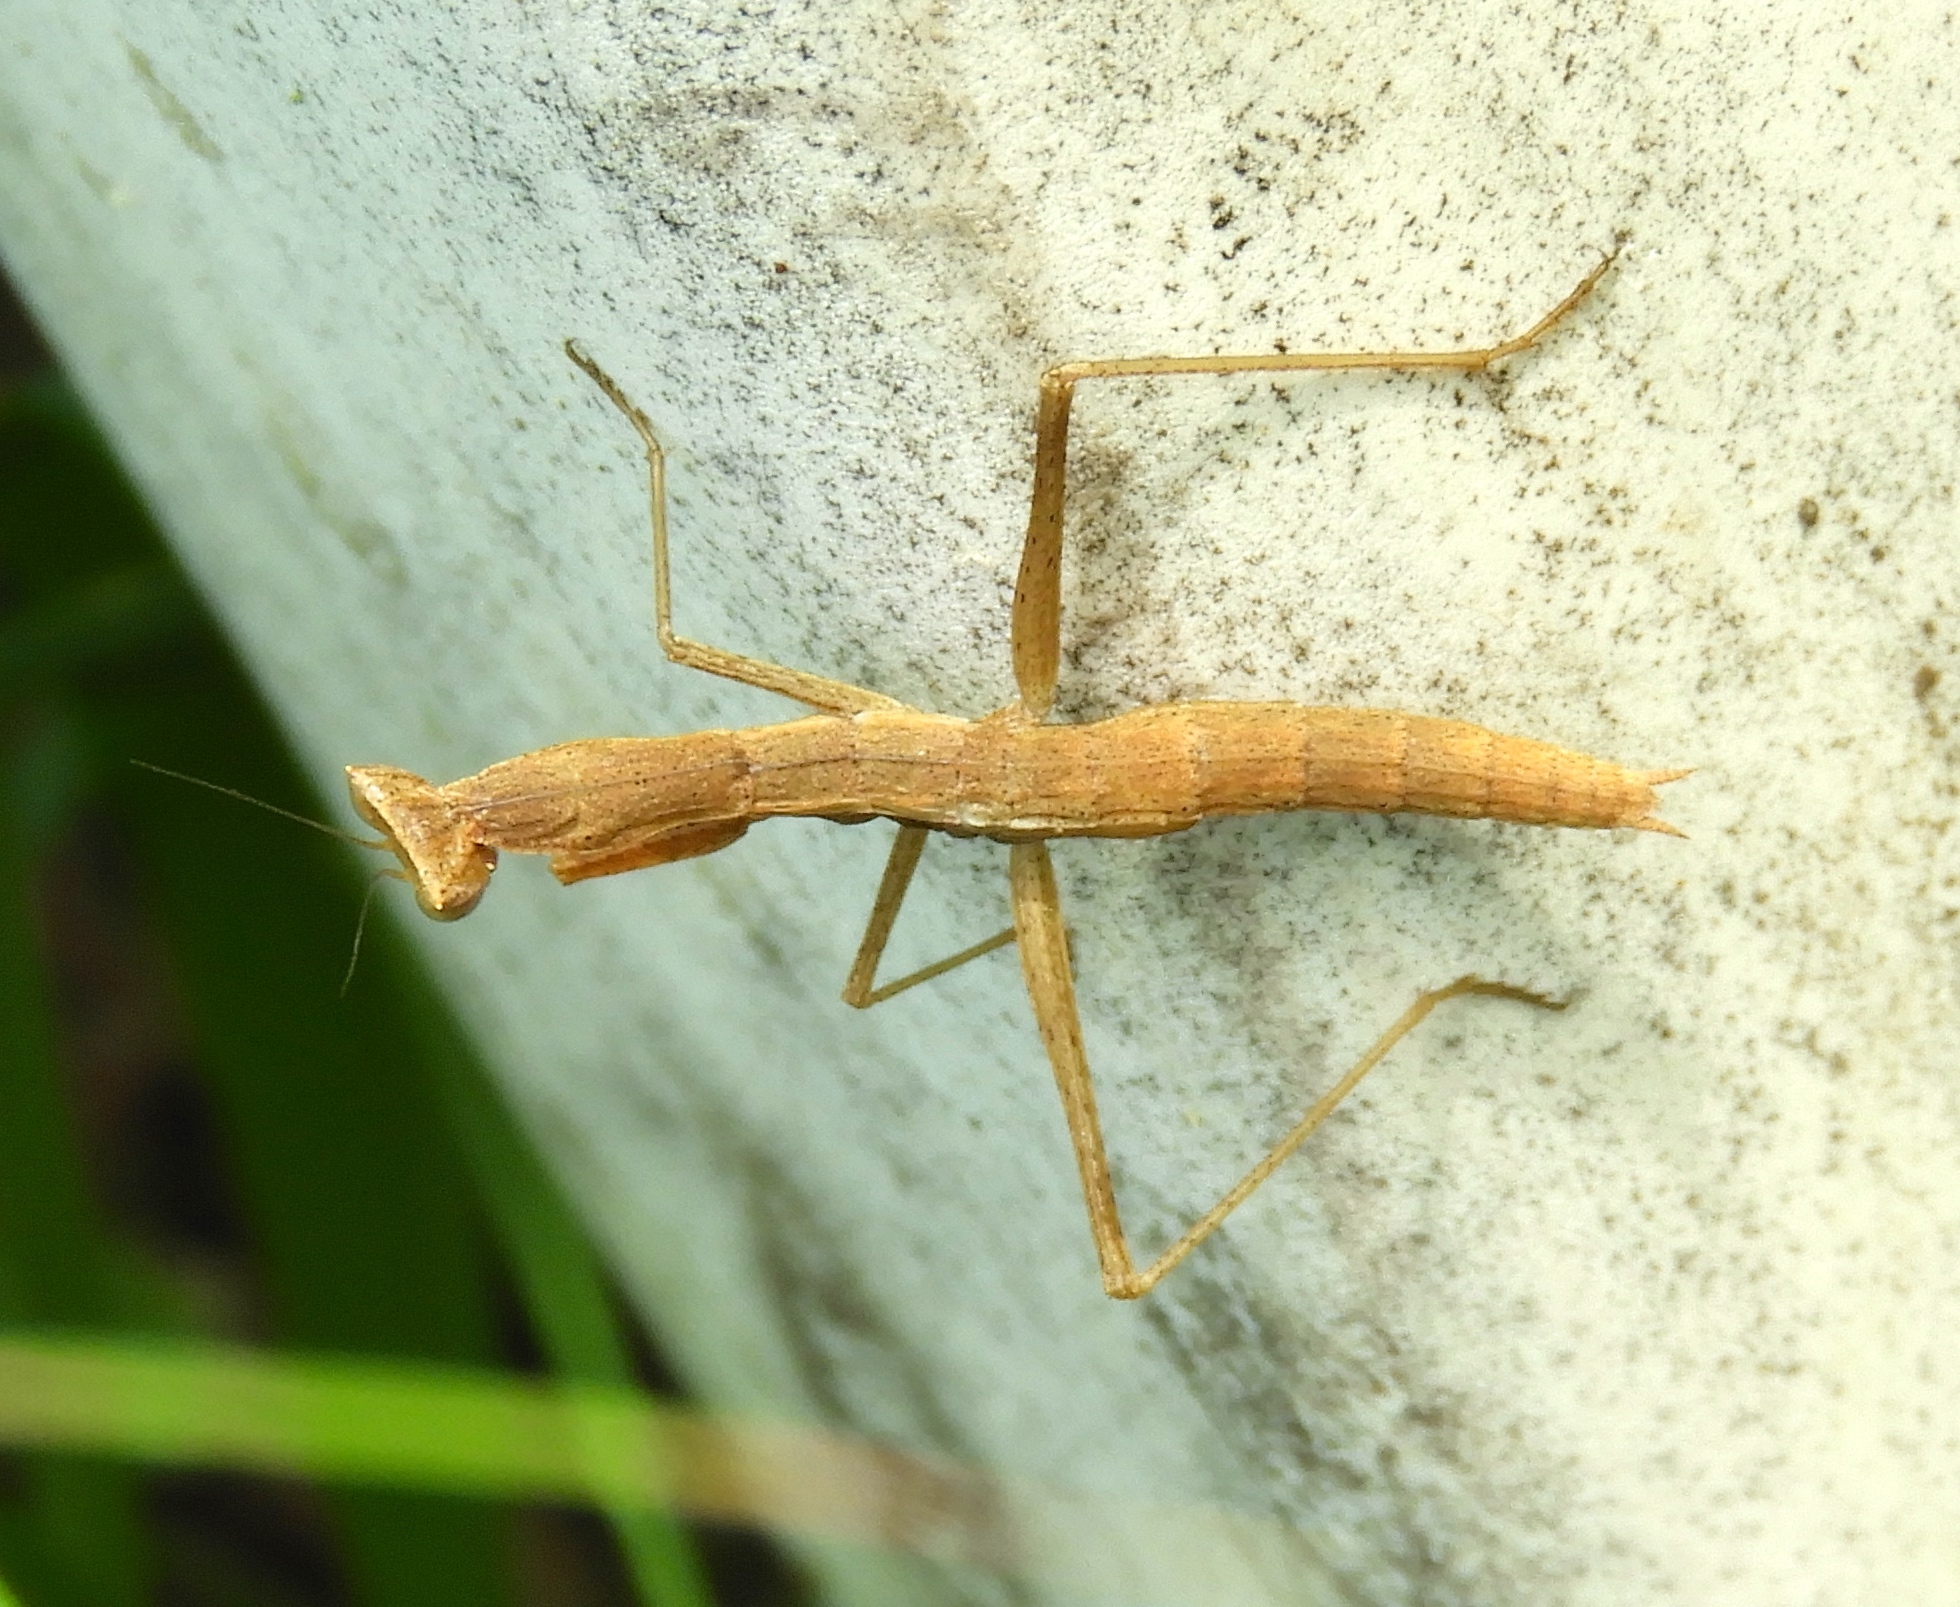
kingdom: Animalia
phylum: Arthropoda
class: Insecta
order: Mantodea
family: Amelidae
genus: Yersinia
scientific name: Yersinia mexicana
